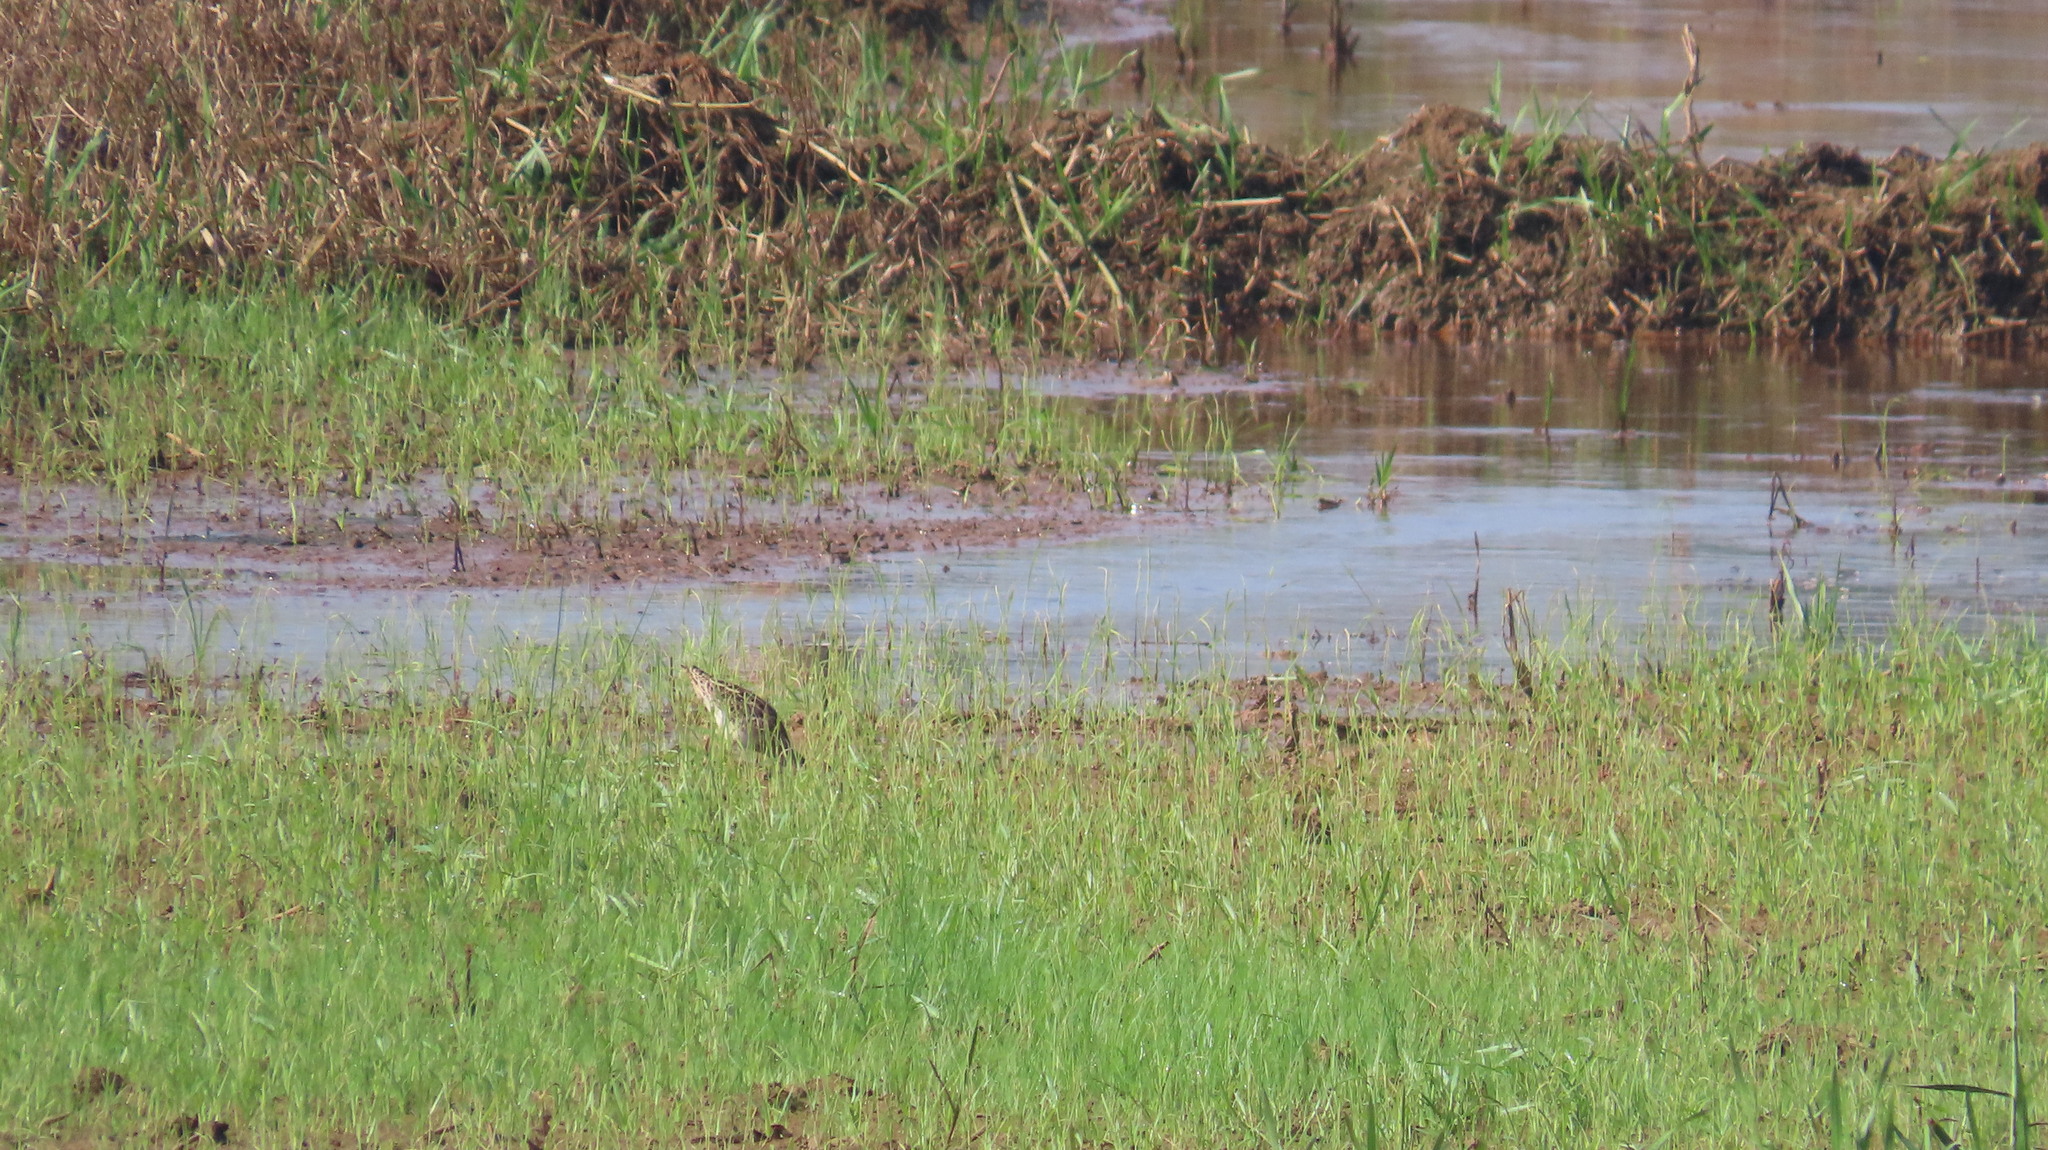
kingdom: Animalia
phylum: Chordata
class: Aves
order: Charadriiformes
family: Scolopacidae
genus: Gallinago
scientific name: Gallinago gallinago
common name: Common snipe
